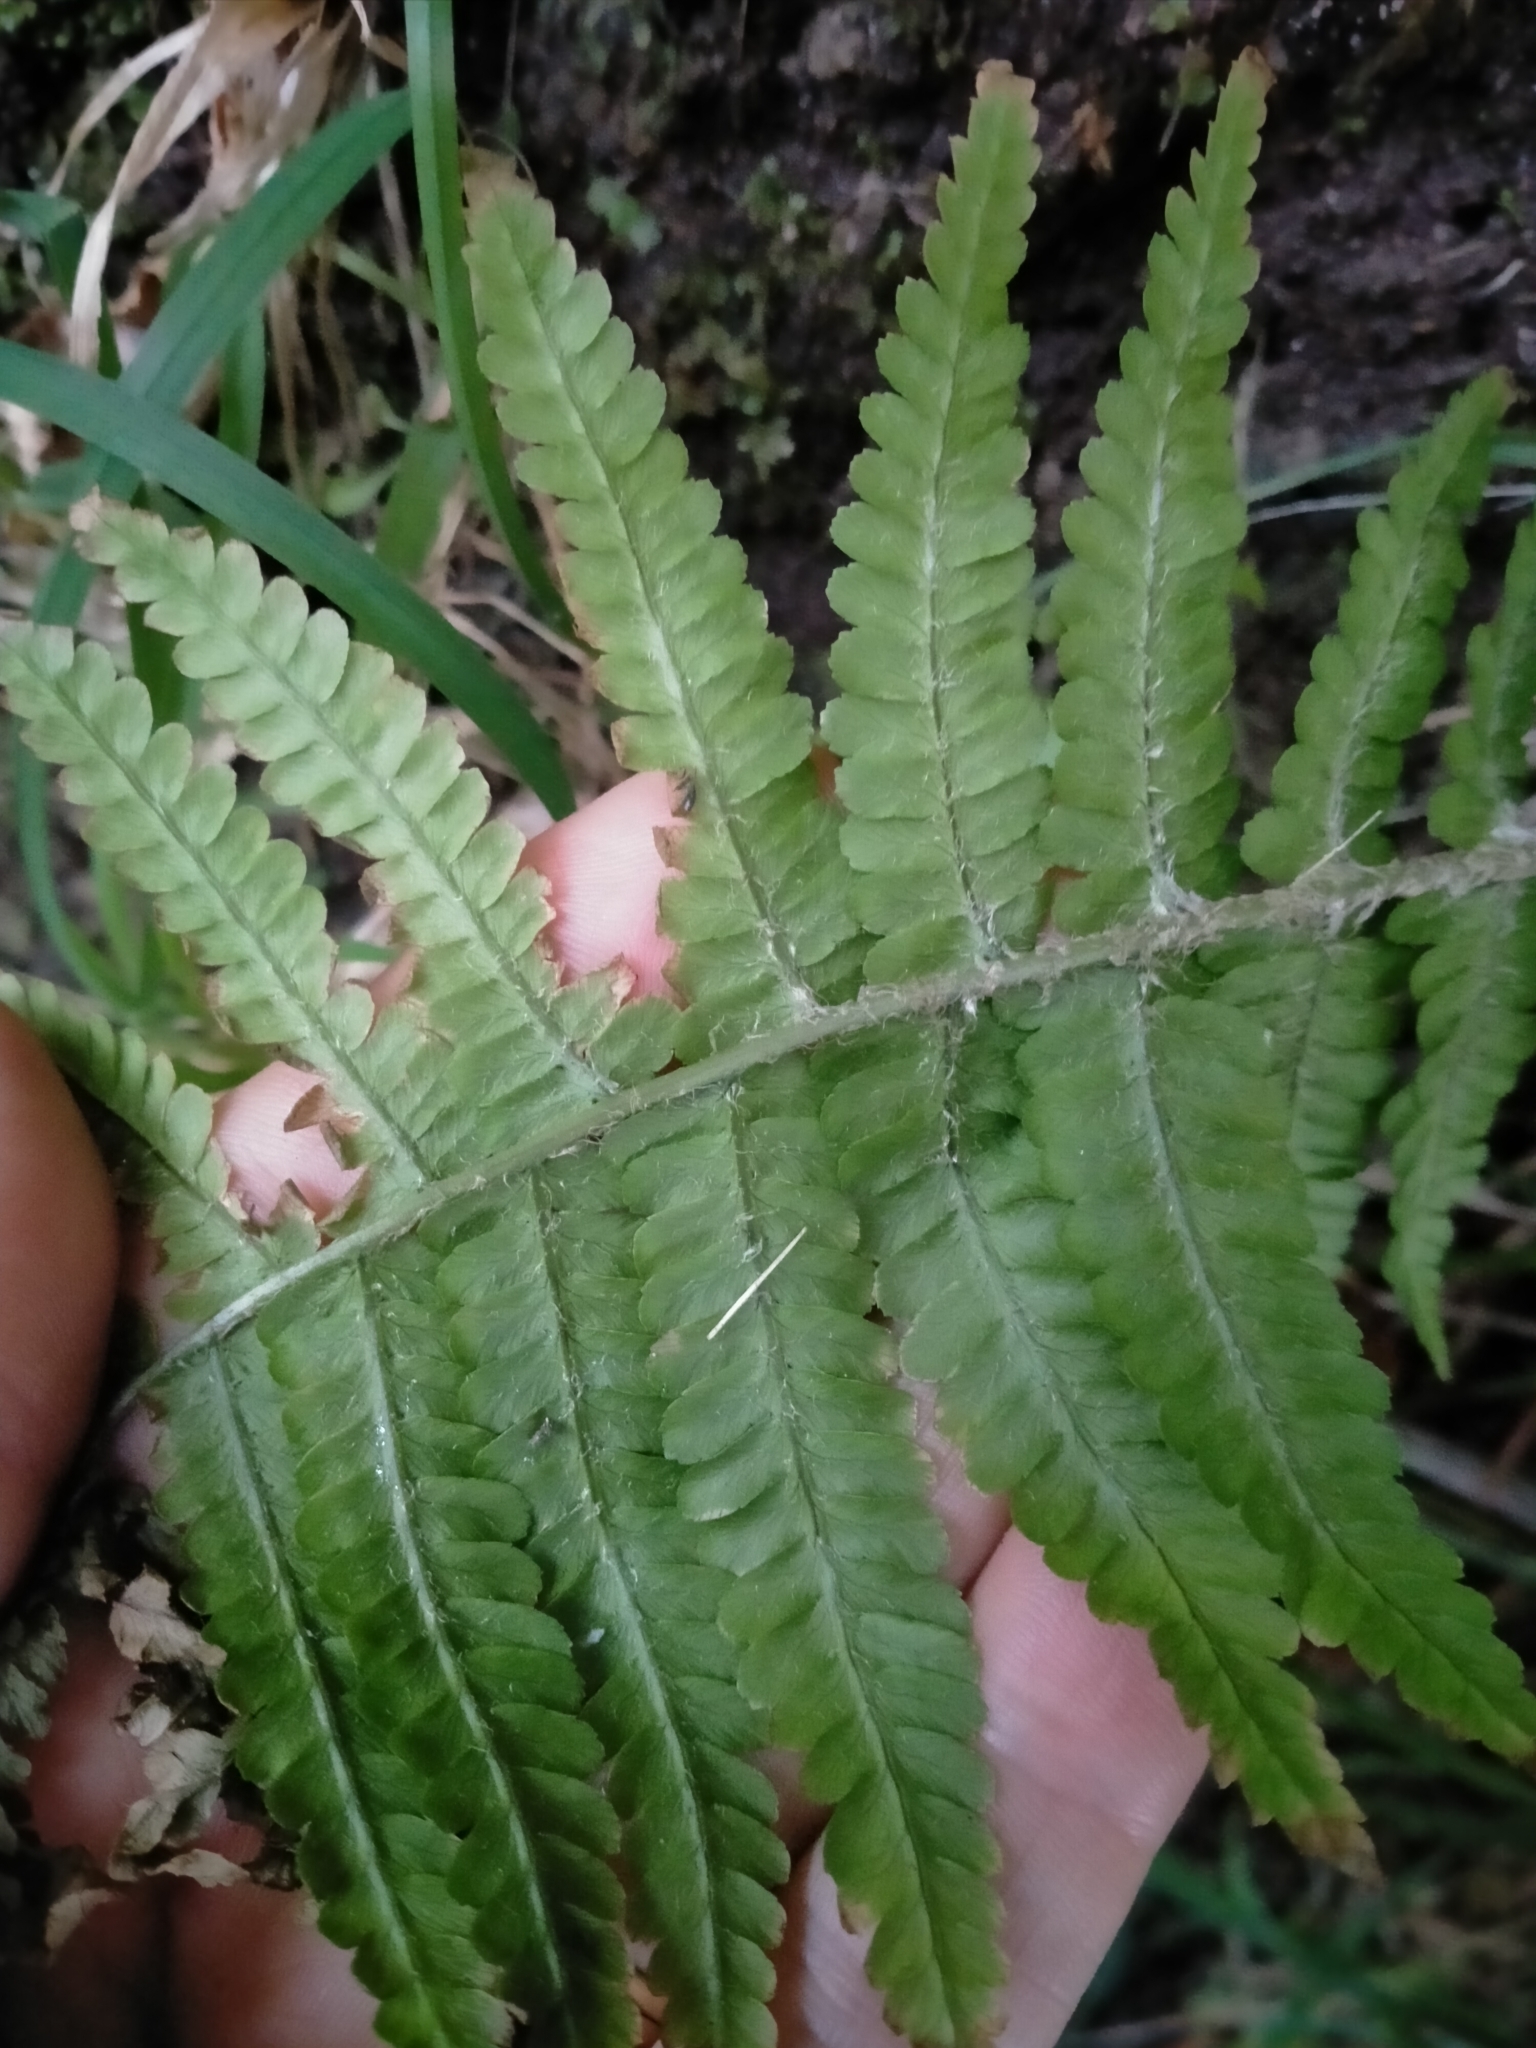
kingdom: Plantae
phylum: Tracheophyta
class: Polypodiopsida
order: Polypodiales
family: Dryopteridaceae
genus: Dryopteris
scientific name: Dryopteris filix-mas
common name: Male fern
